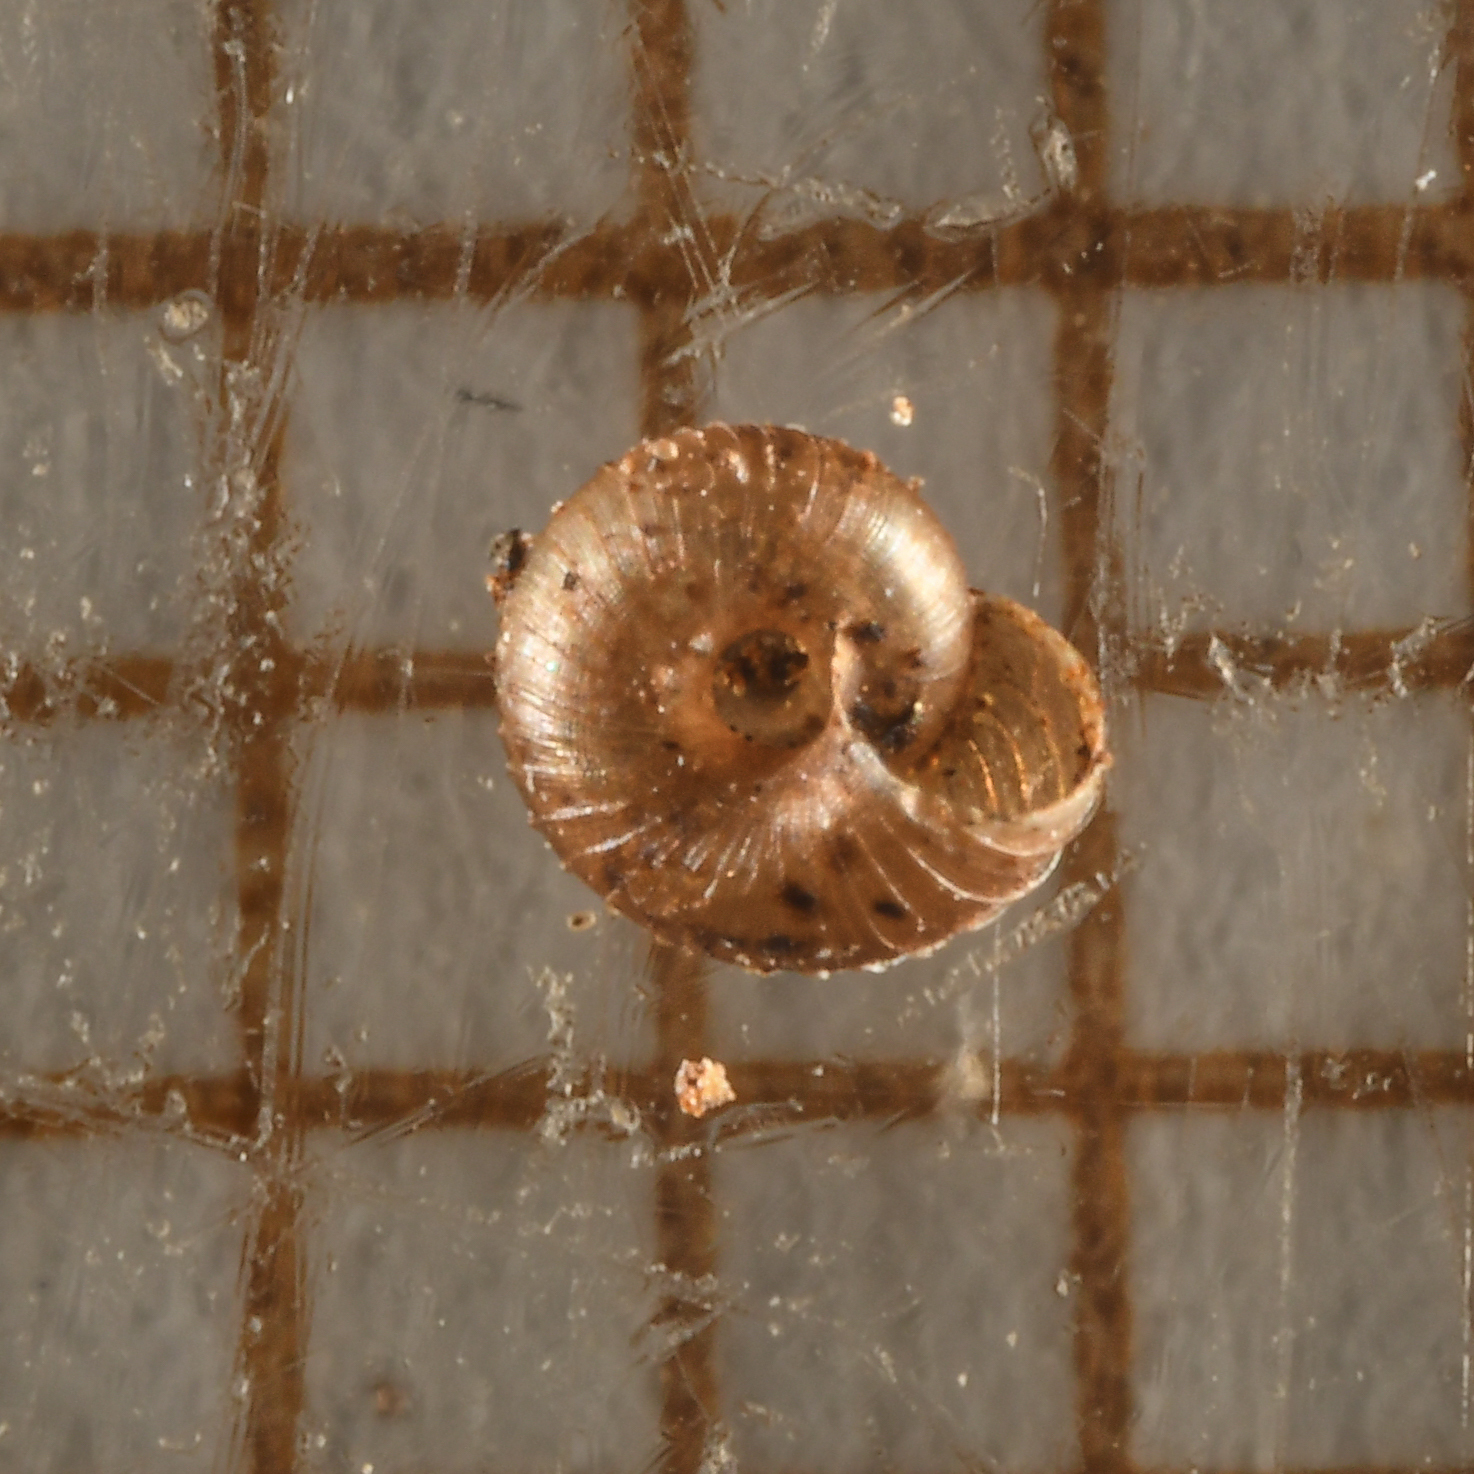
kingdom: Animalia
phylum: Mollusca
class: Gastropoda
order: Stylommatophora
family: Punctidae
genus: Paralaoma
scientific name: Paralaoma servilis
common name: Pinhead spot
